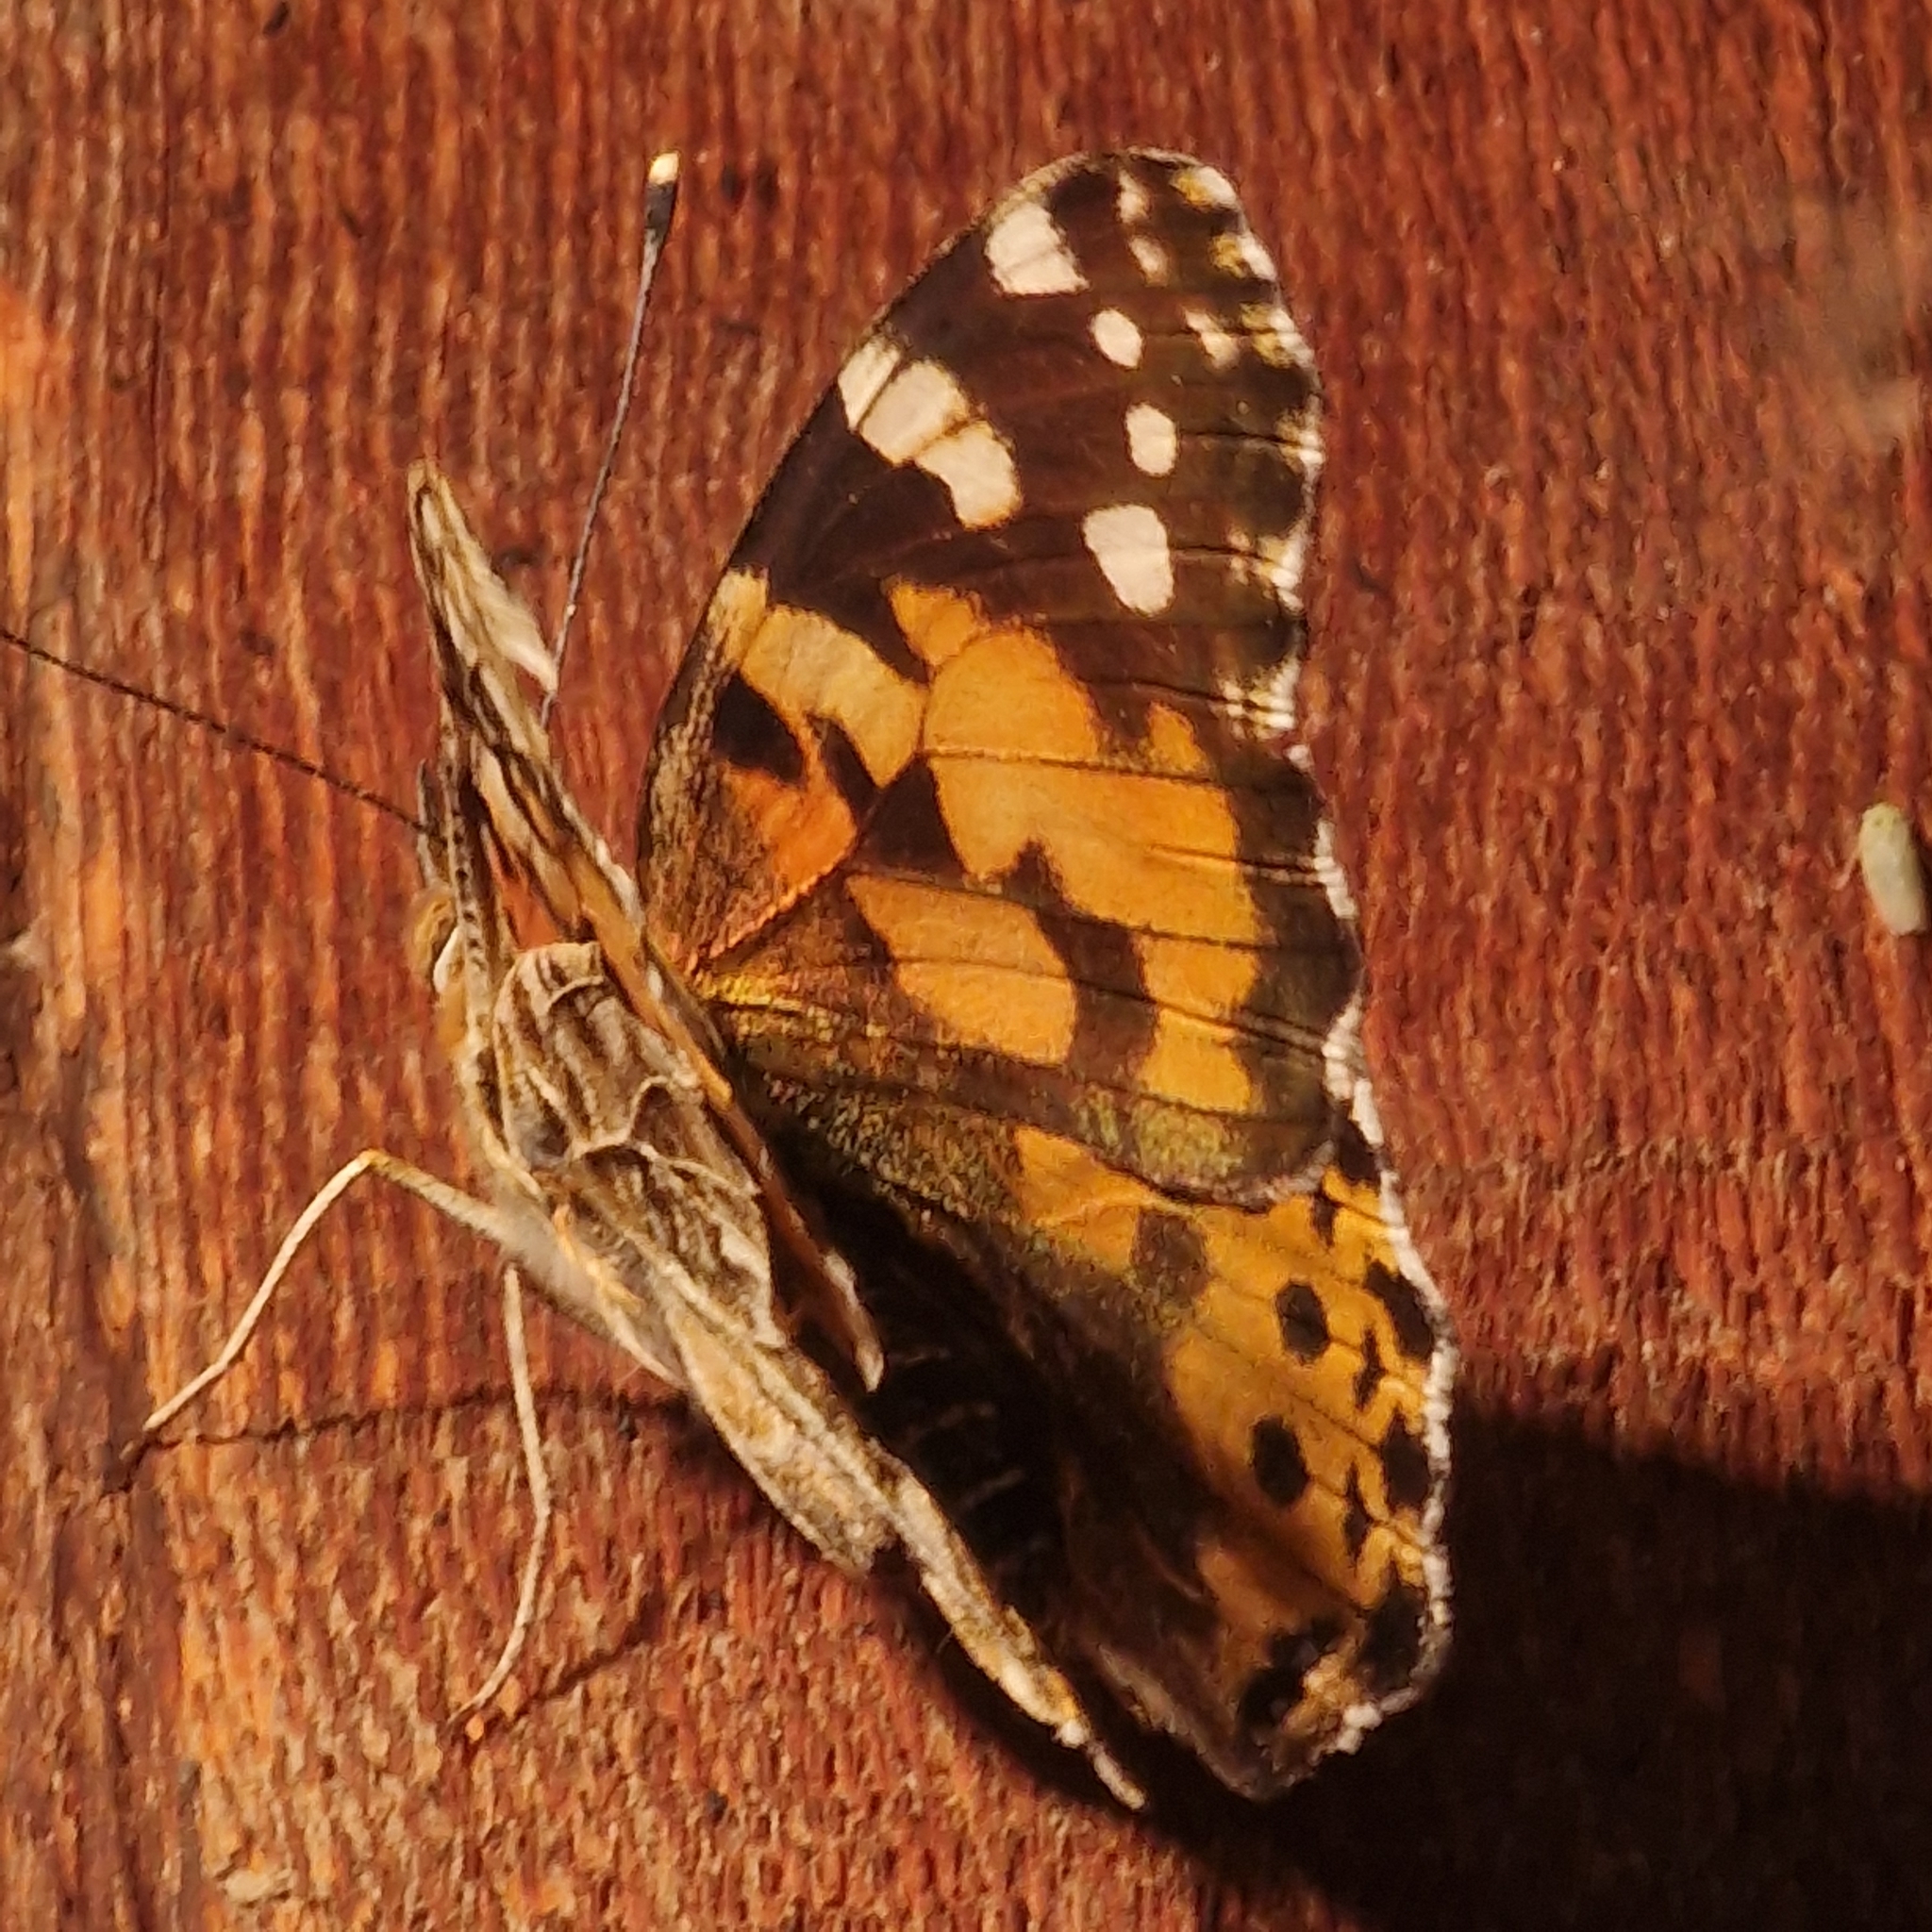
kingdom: Animalia
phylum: Arthropoda
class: Insecta
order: Lepidoptera
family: Nymphalidae
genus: Vanessa
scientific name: Vanessa cardui
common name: Painted lady
